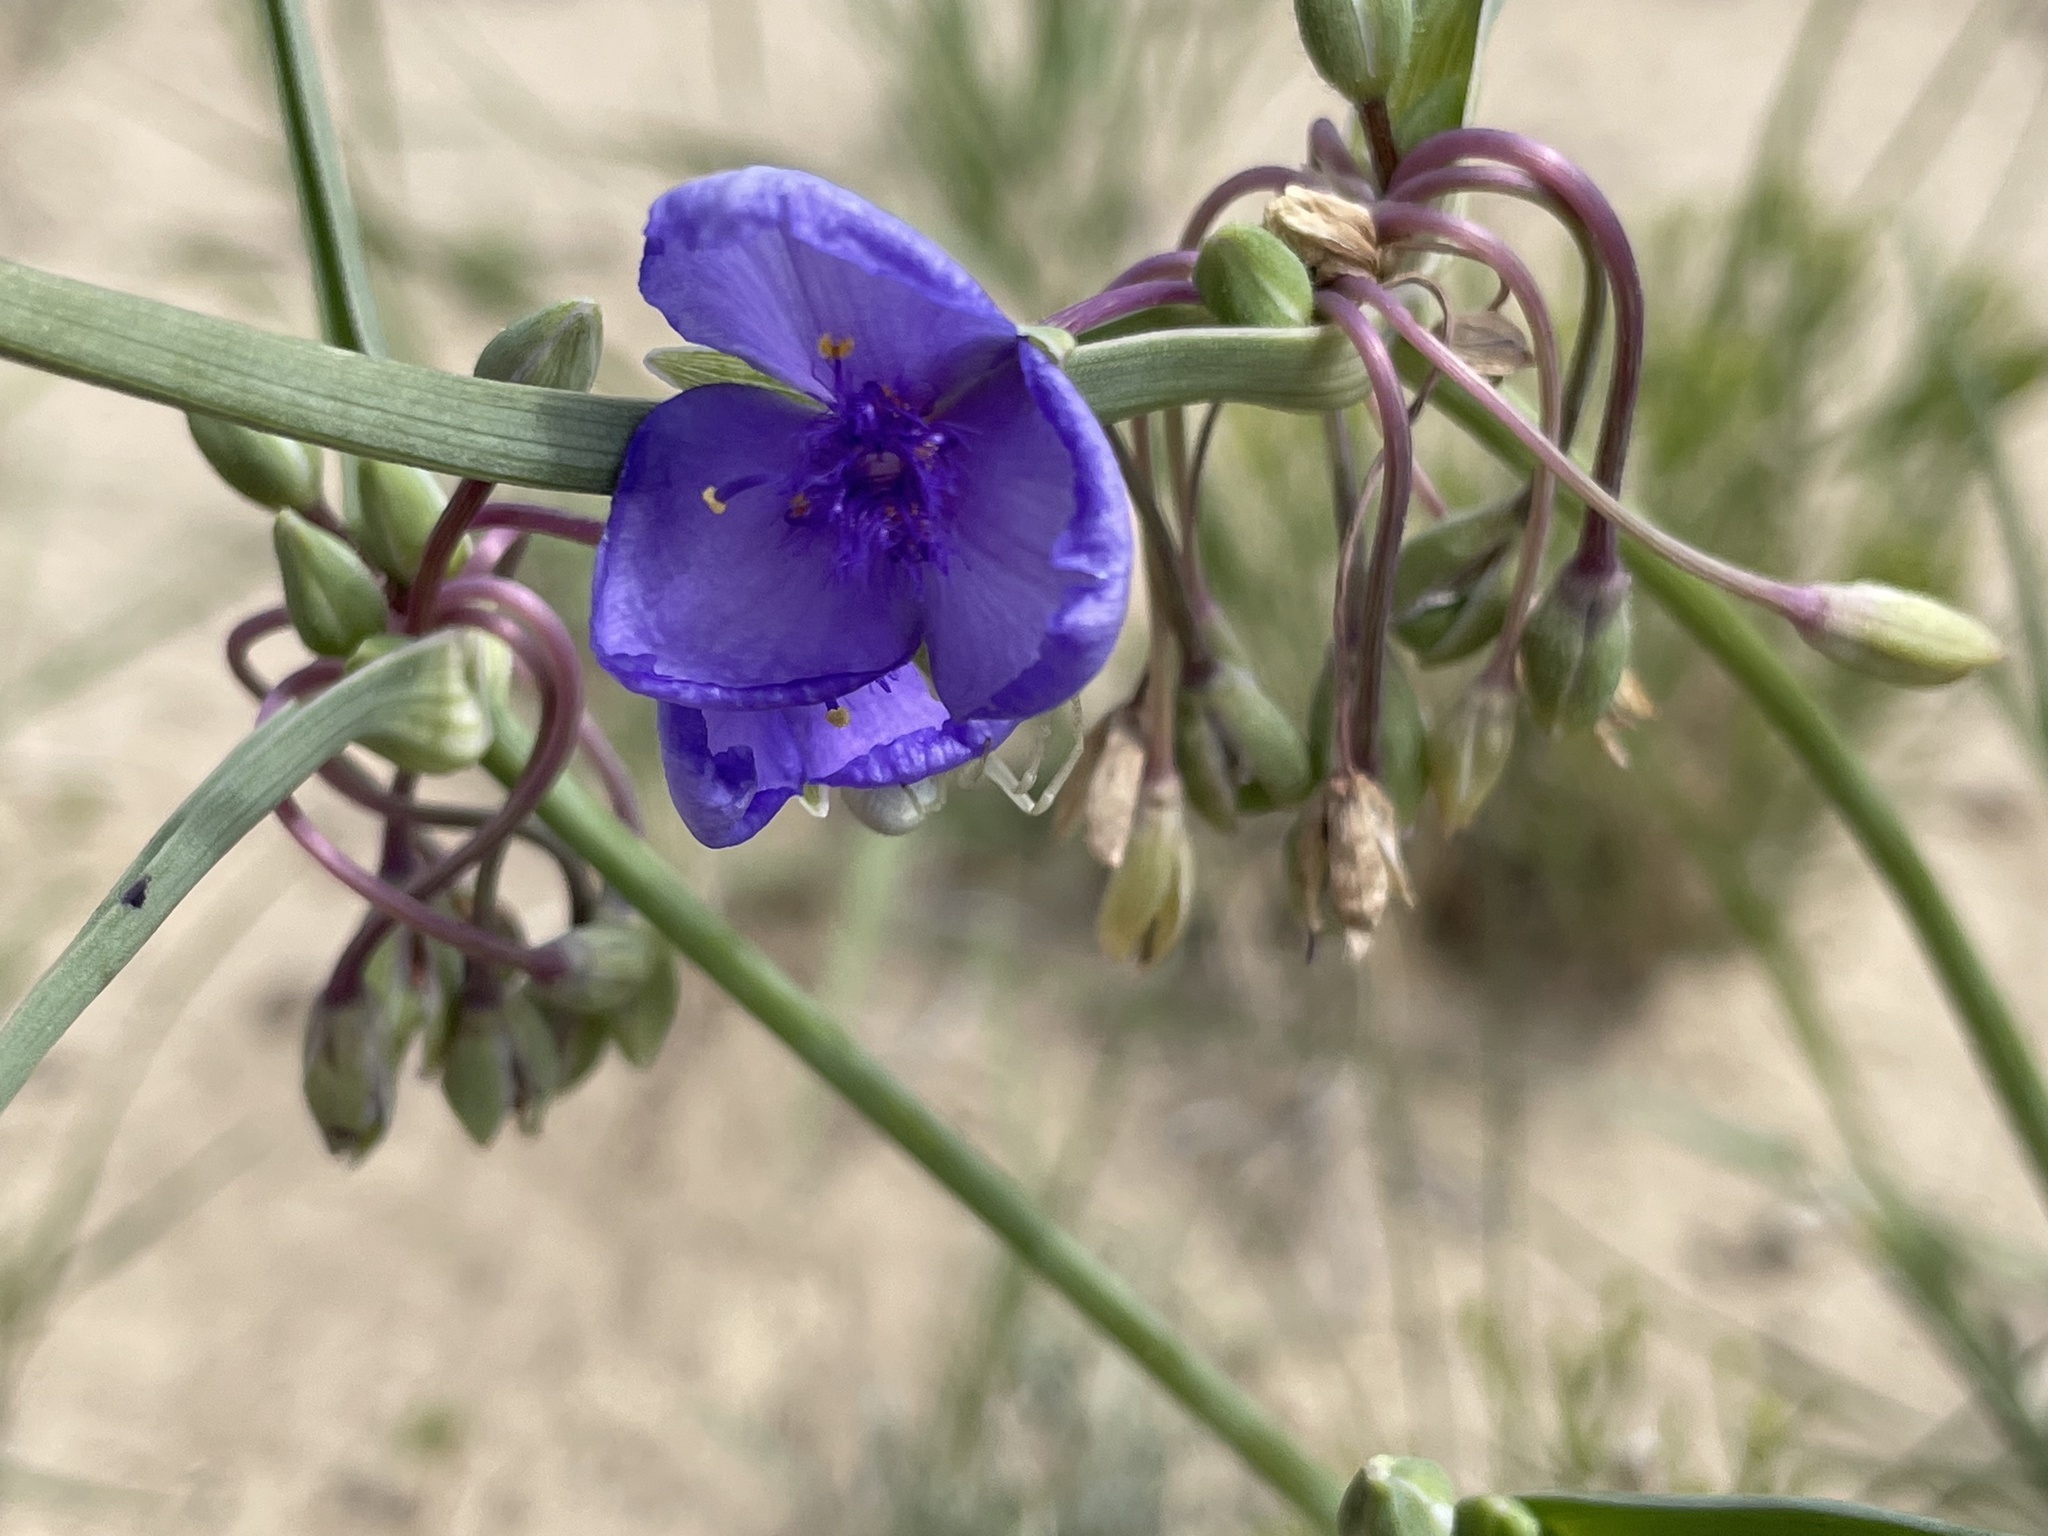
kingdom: Plantae
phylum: Tracheophyta
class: Liliopsida
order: Commelinales
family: Commelinaceae
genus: Tradescantia
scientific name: Tradescantia occidentalis
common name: Prairie spiderwort
